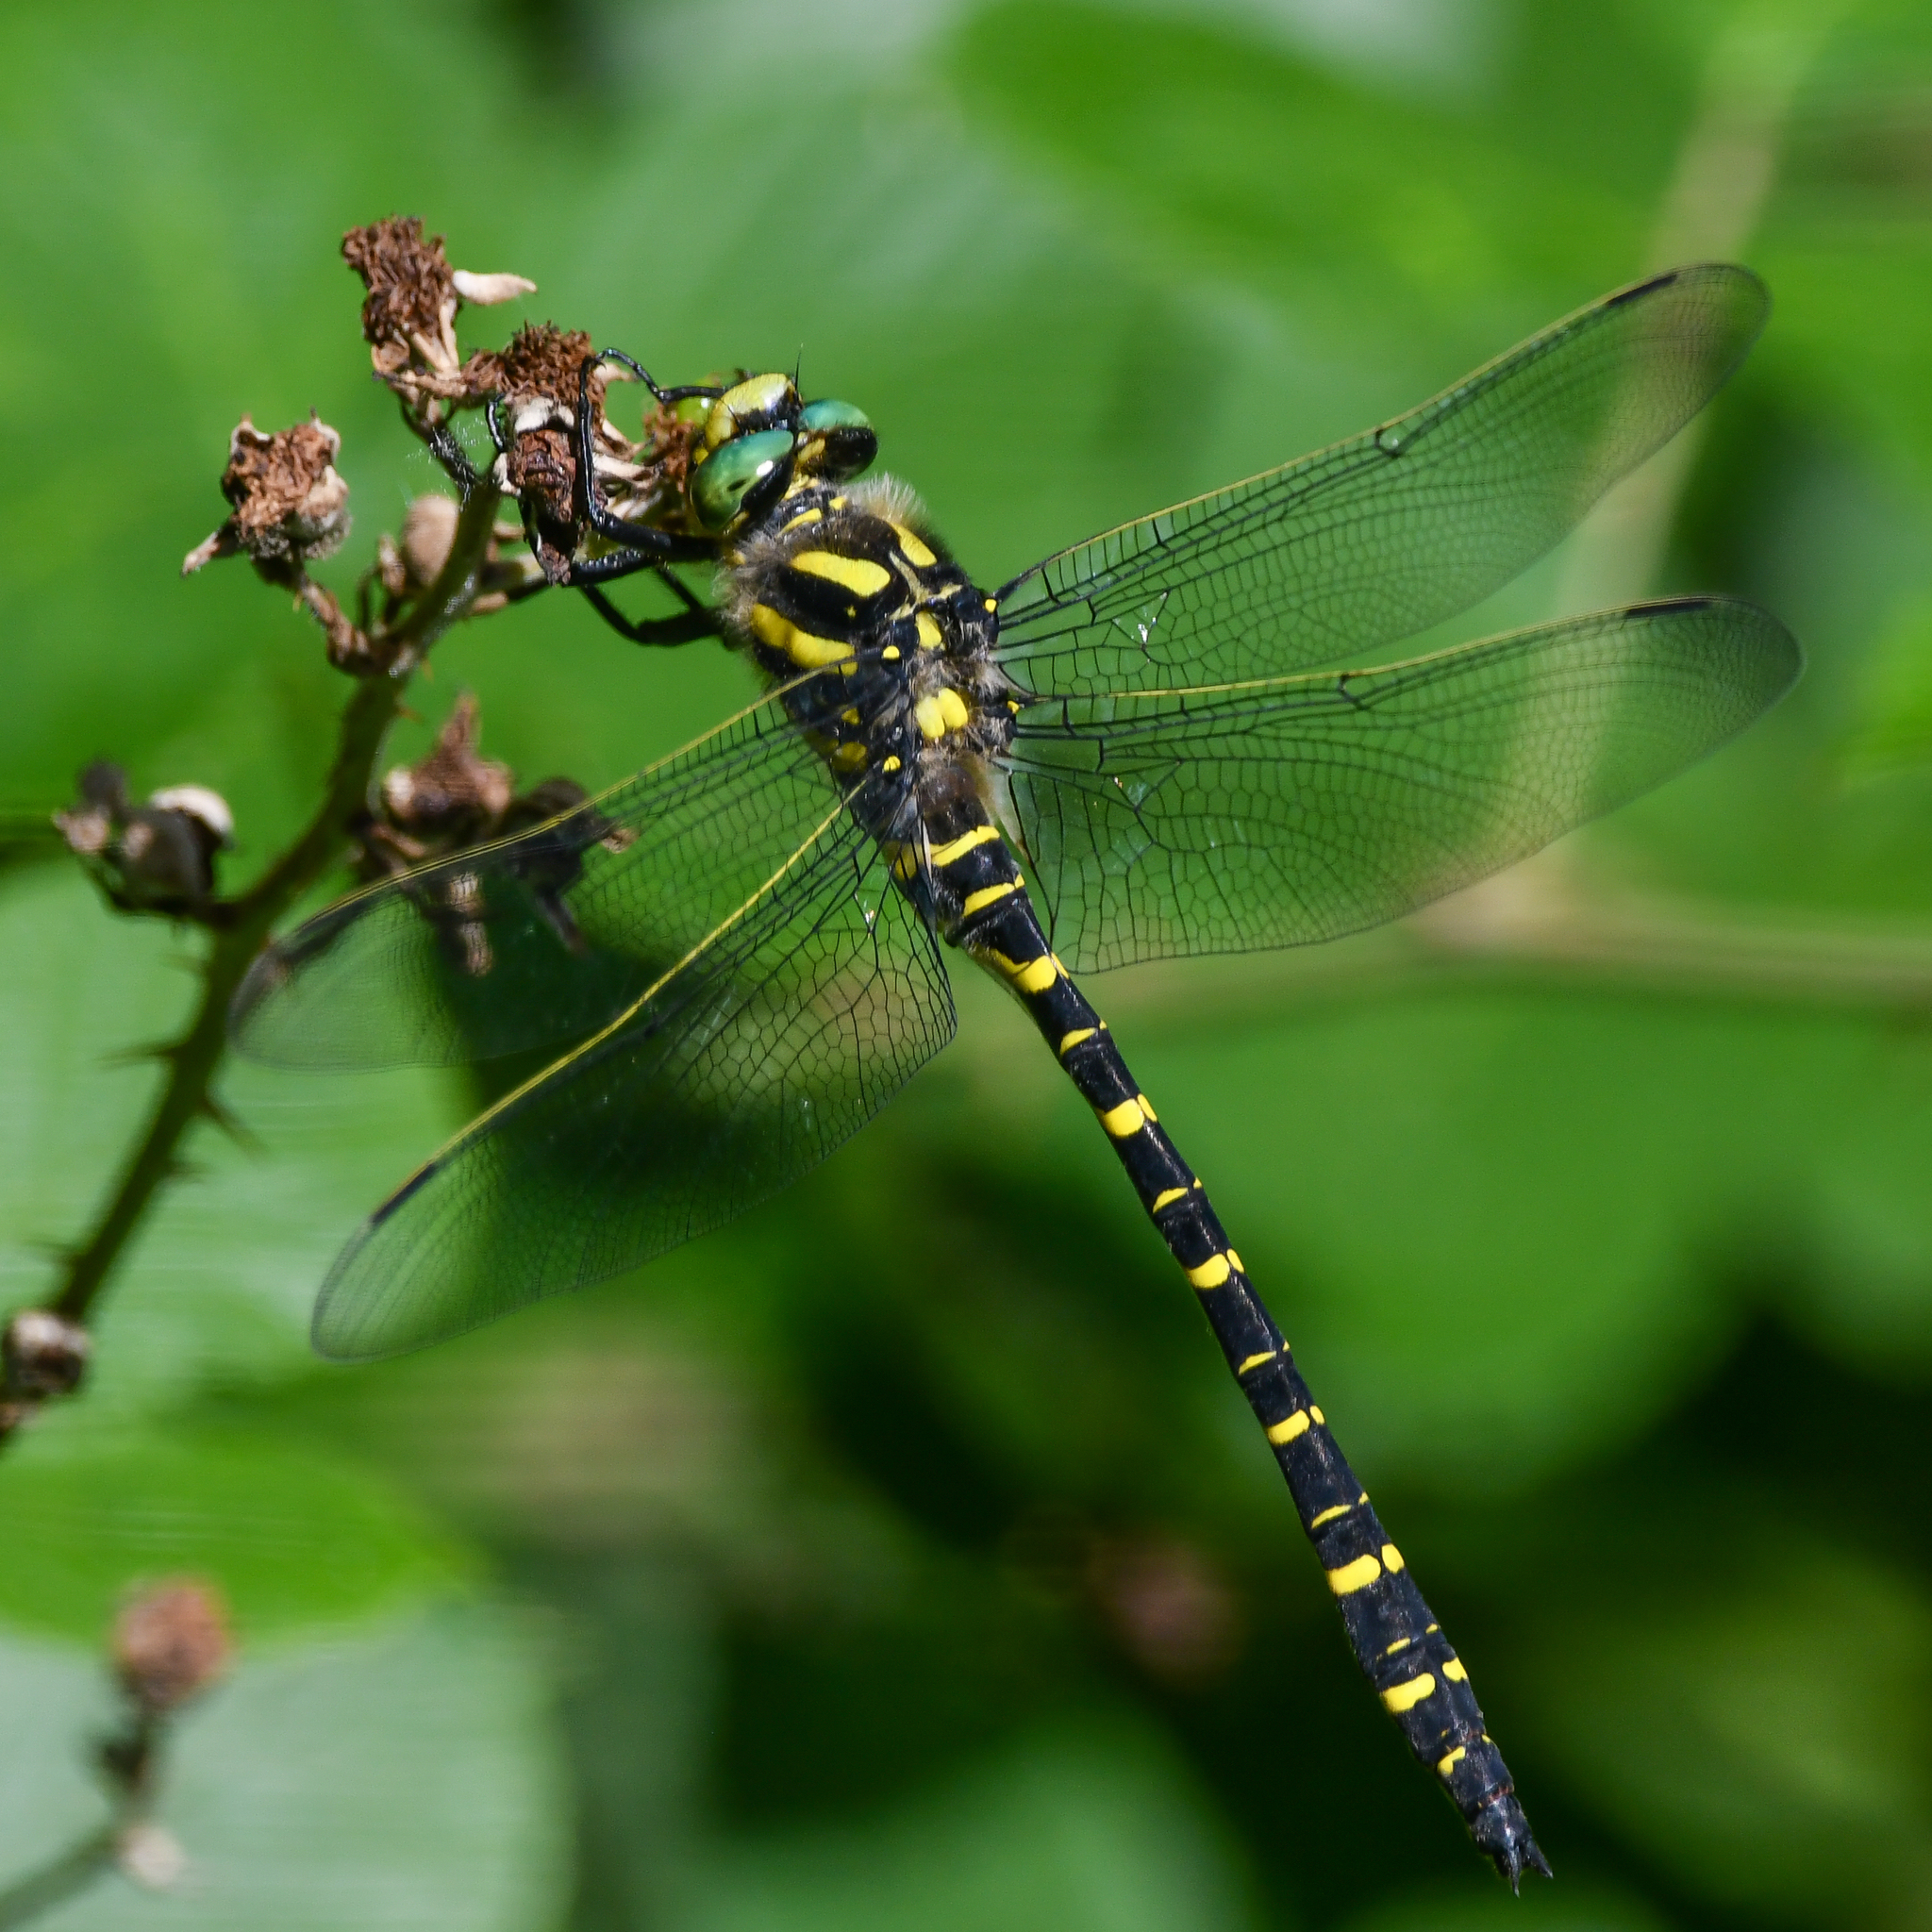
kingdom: Animalia
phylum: Arthropoda
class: Insecta
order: Odonata
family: Cordulegastridae
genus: Cordulegaster
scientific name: Cordulegaster boltonii
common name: Golden-ringed dragonfly
